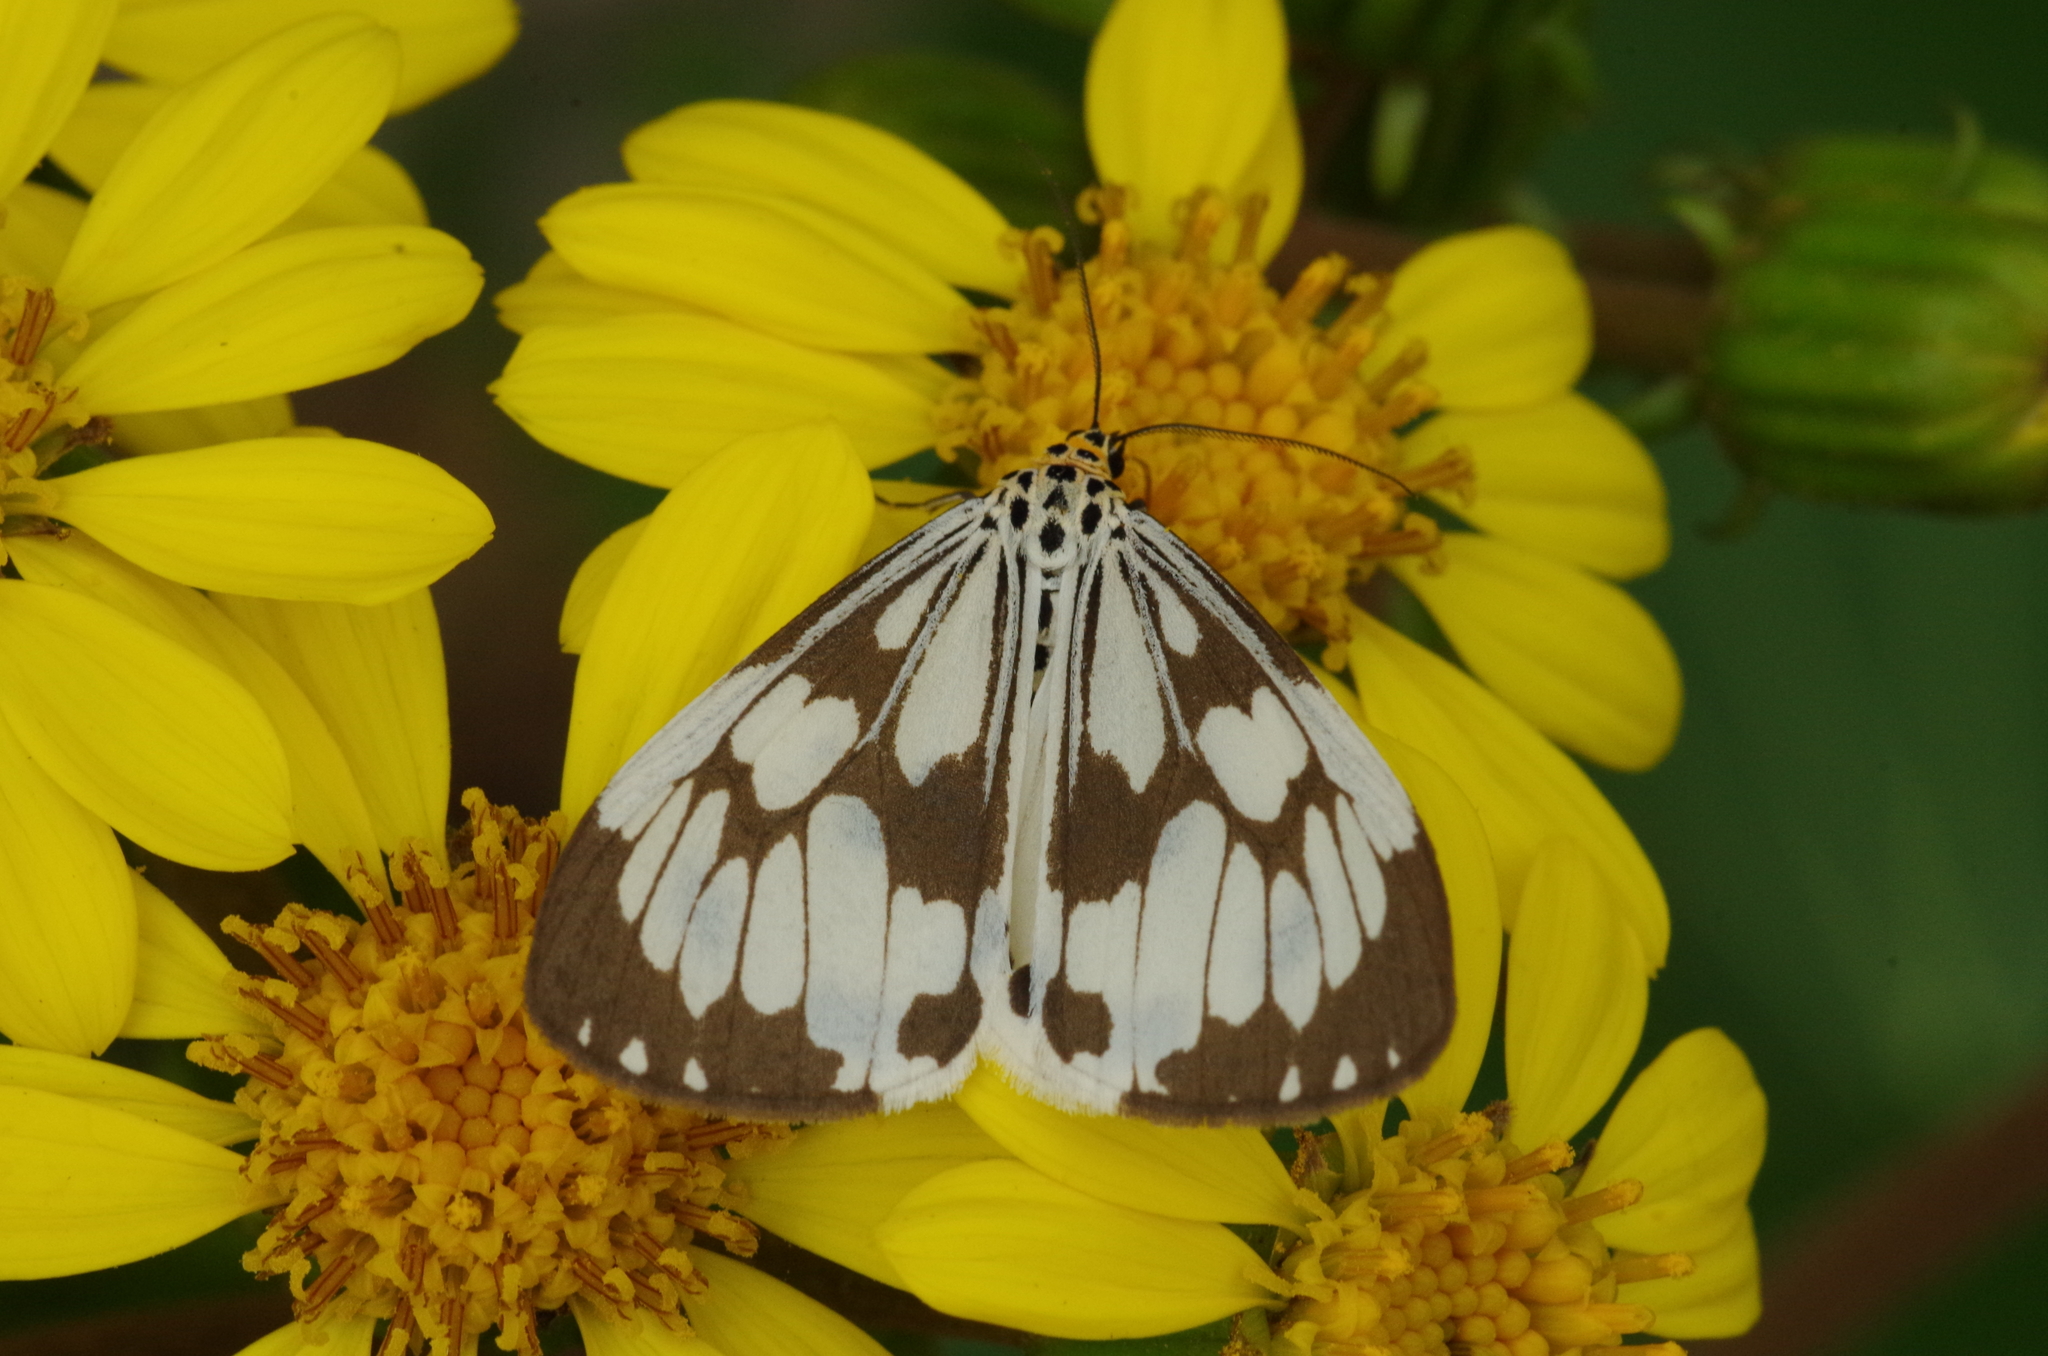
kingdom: Animalia
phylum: Arthropoda
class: Insecta
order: Lepidoptera
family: Erebidae
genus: Nyctemera
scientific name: Nyctemera adversata
